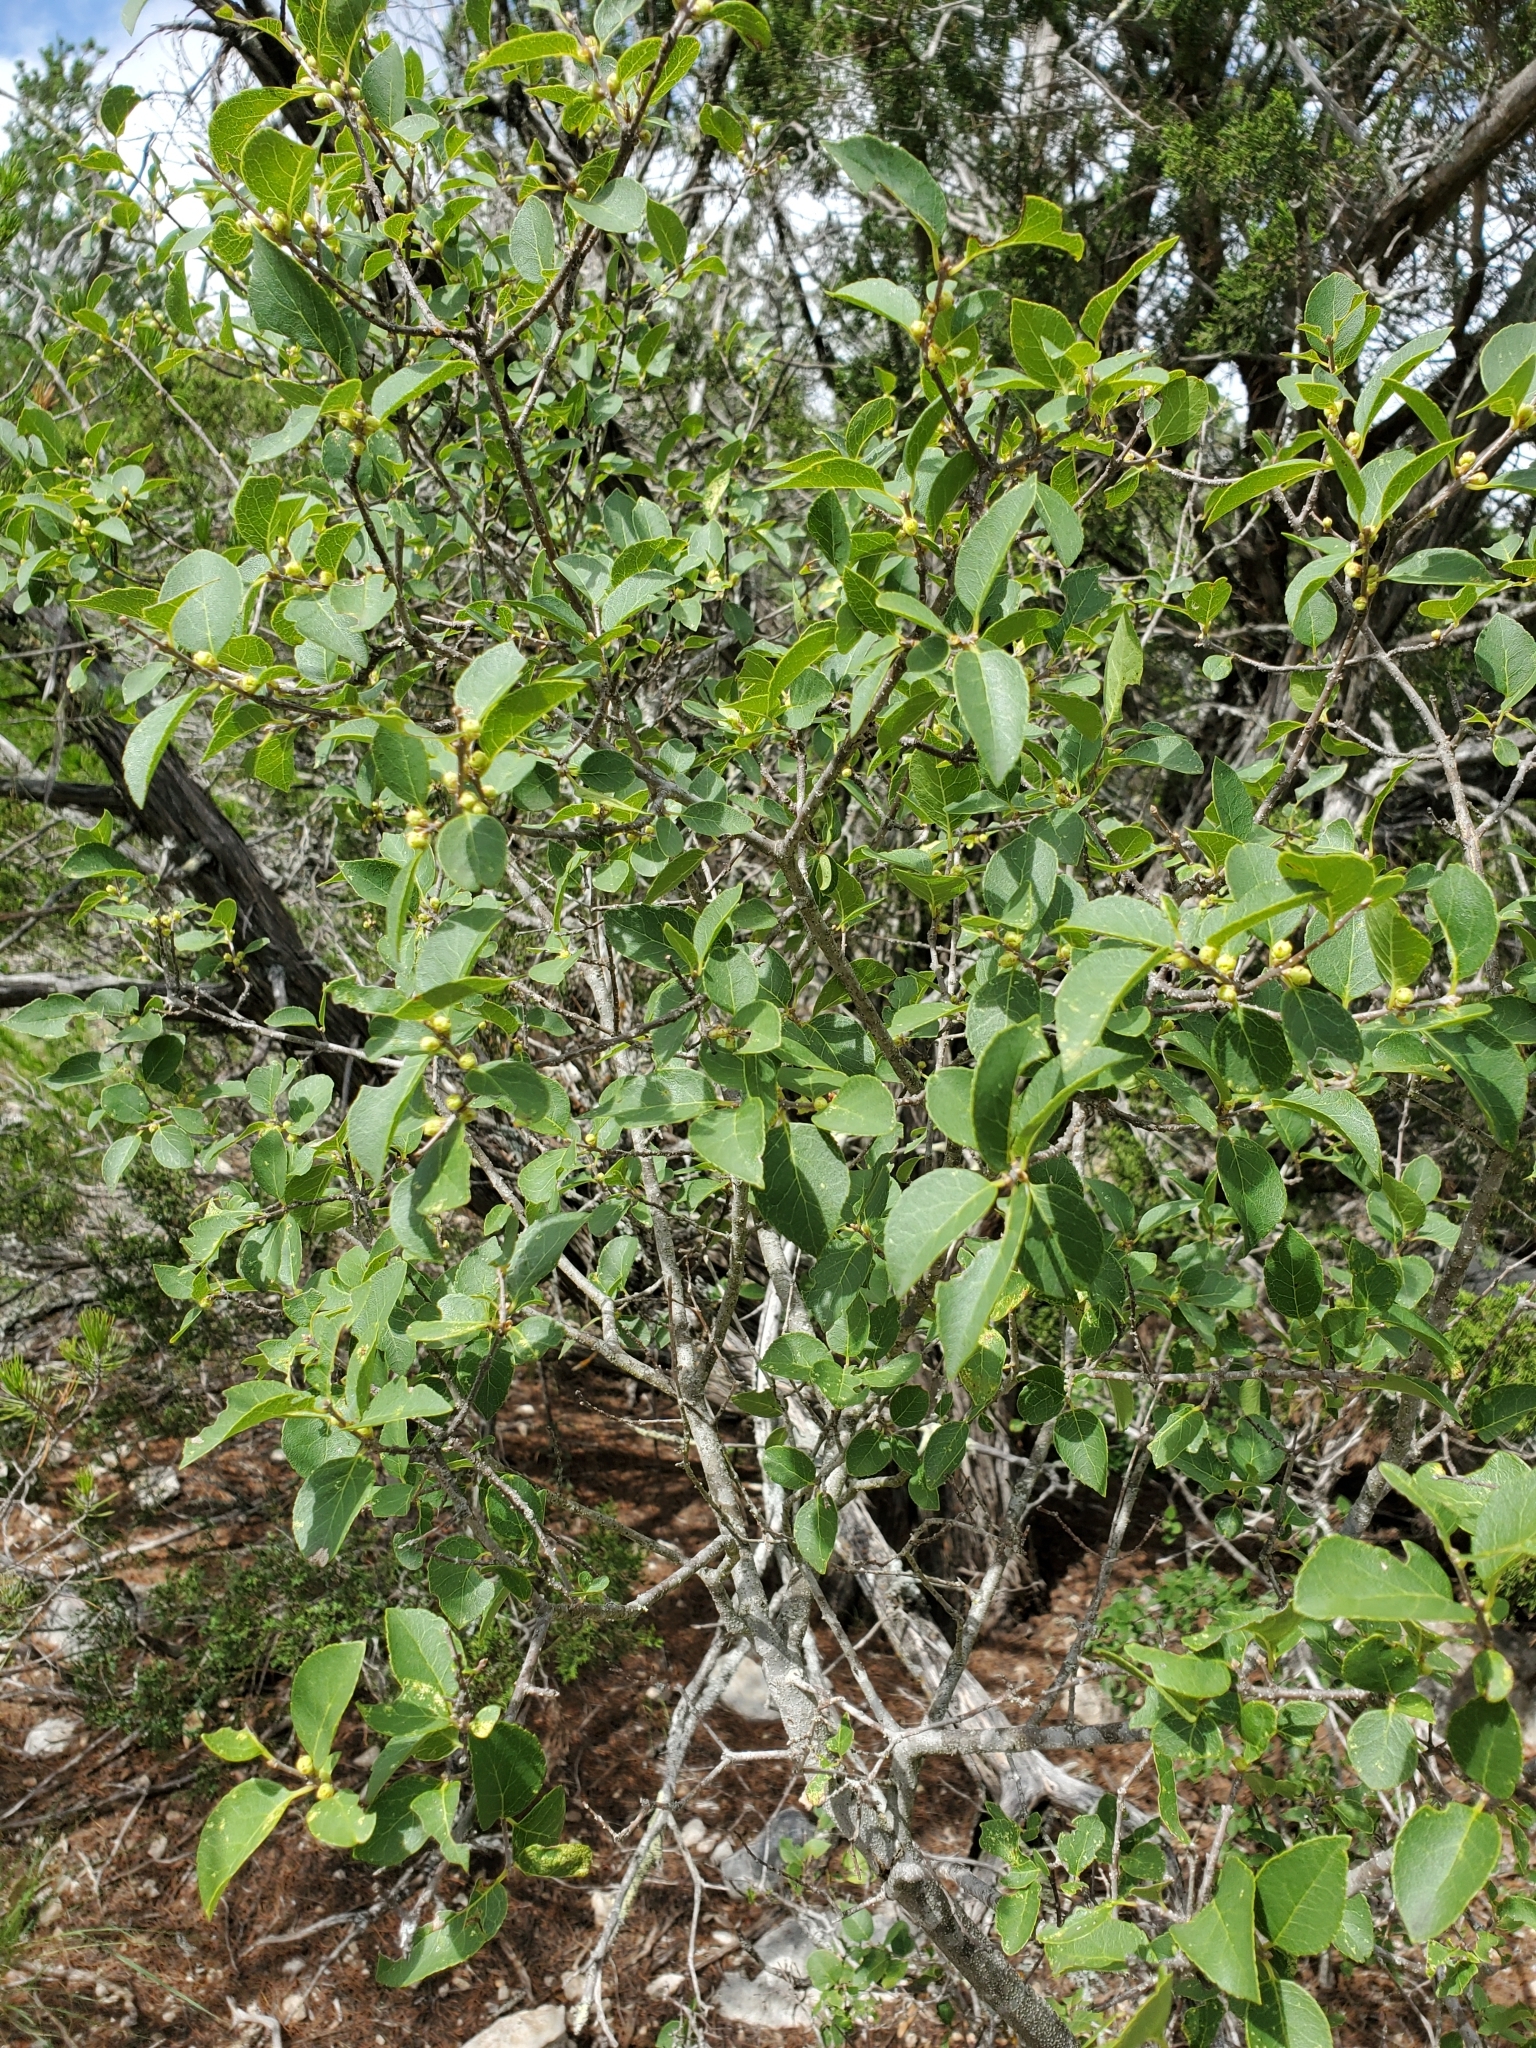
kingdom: Plantae
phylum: Tracheophyta
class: Magnoliopsida
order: Lamiales
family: Oleaceae
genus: Forestiera
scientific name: Forestiera reticulata
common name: Netleaf swamp-privet
